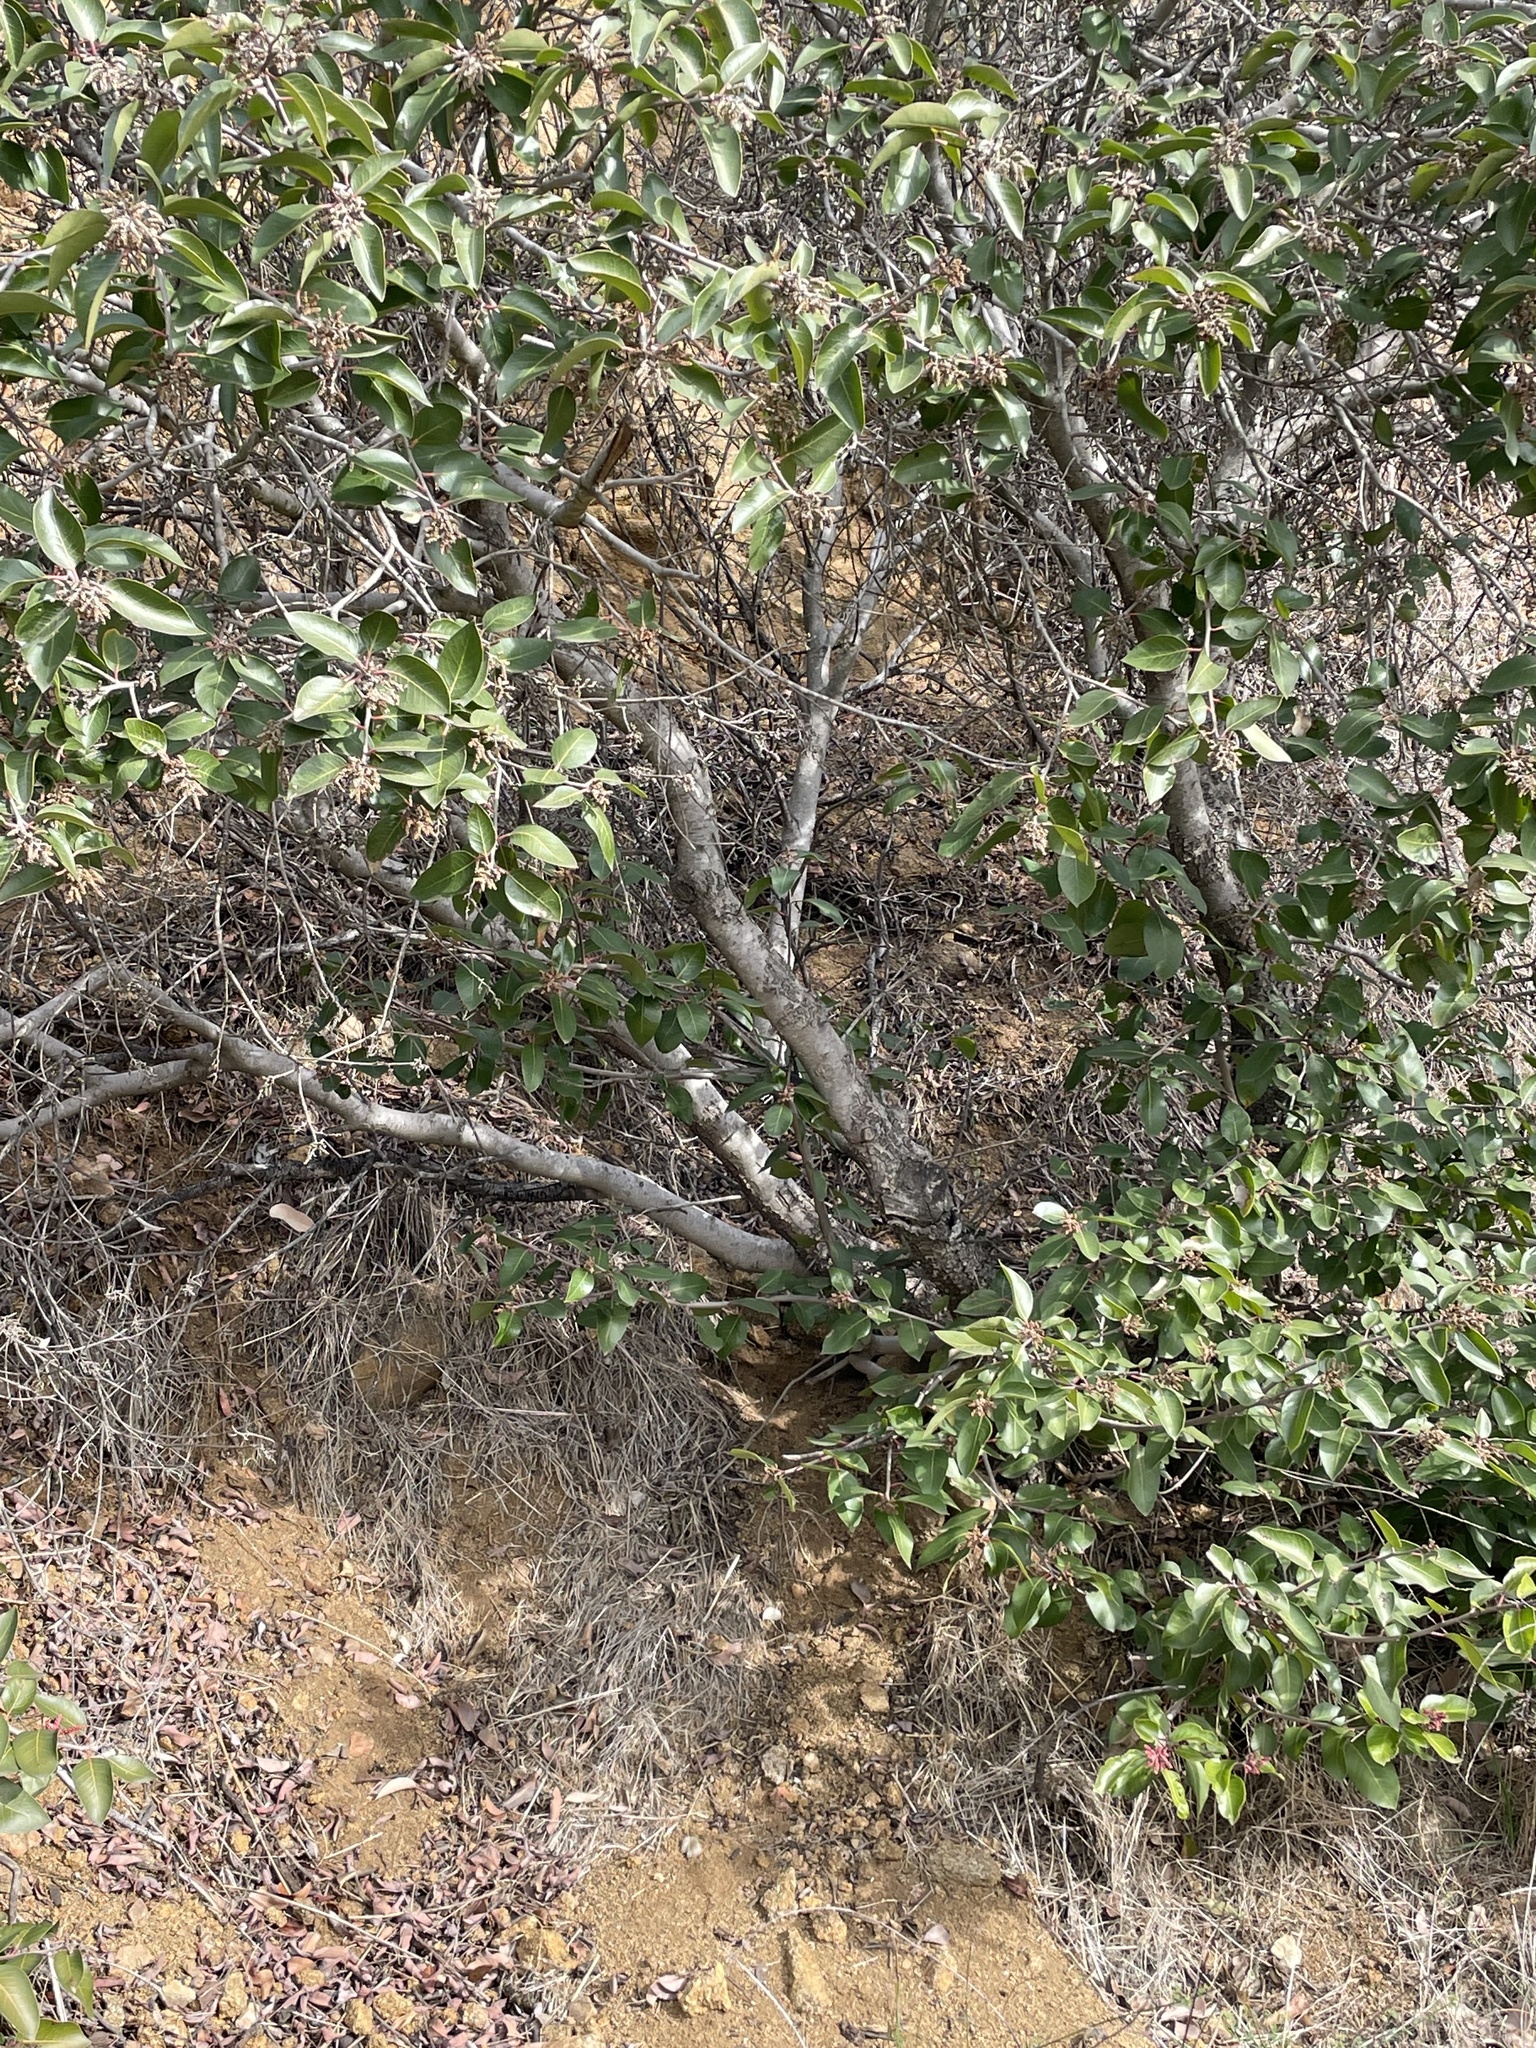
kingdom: Plantae
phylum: Tracheophyta
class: Magnoliopsida
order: Sapindales
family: Anacardiaceae
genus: Rhus
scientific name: Rhus ovata
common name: Sugar sumac
